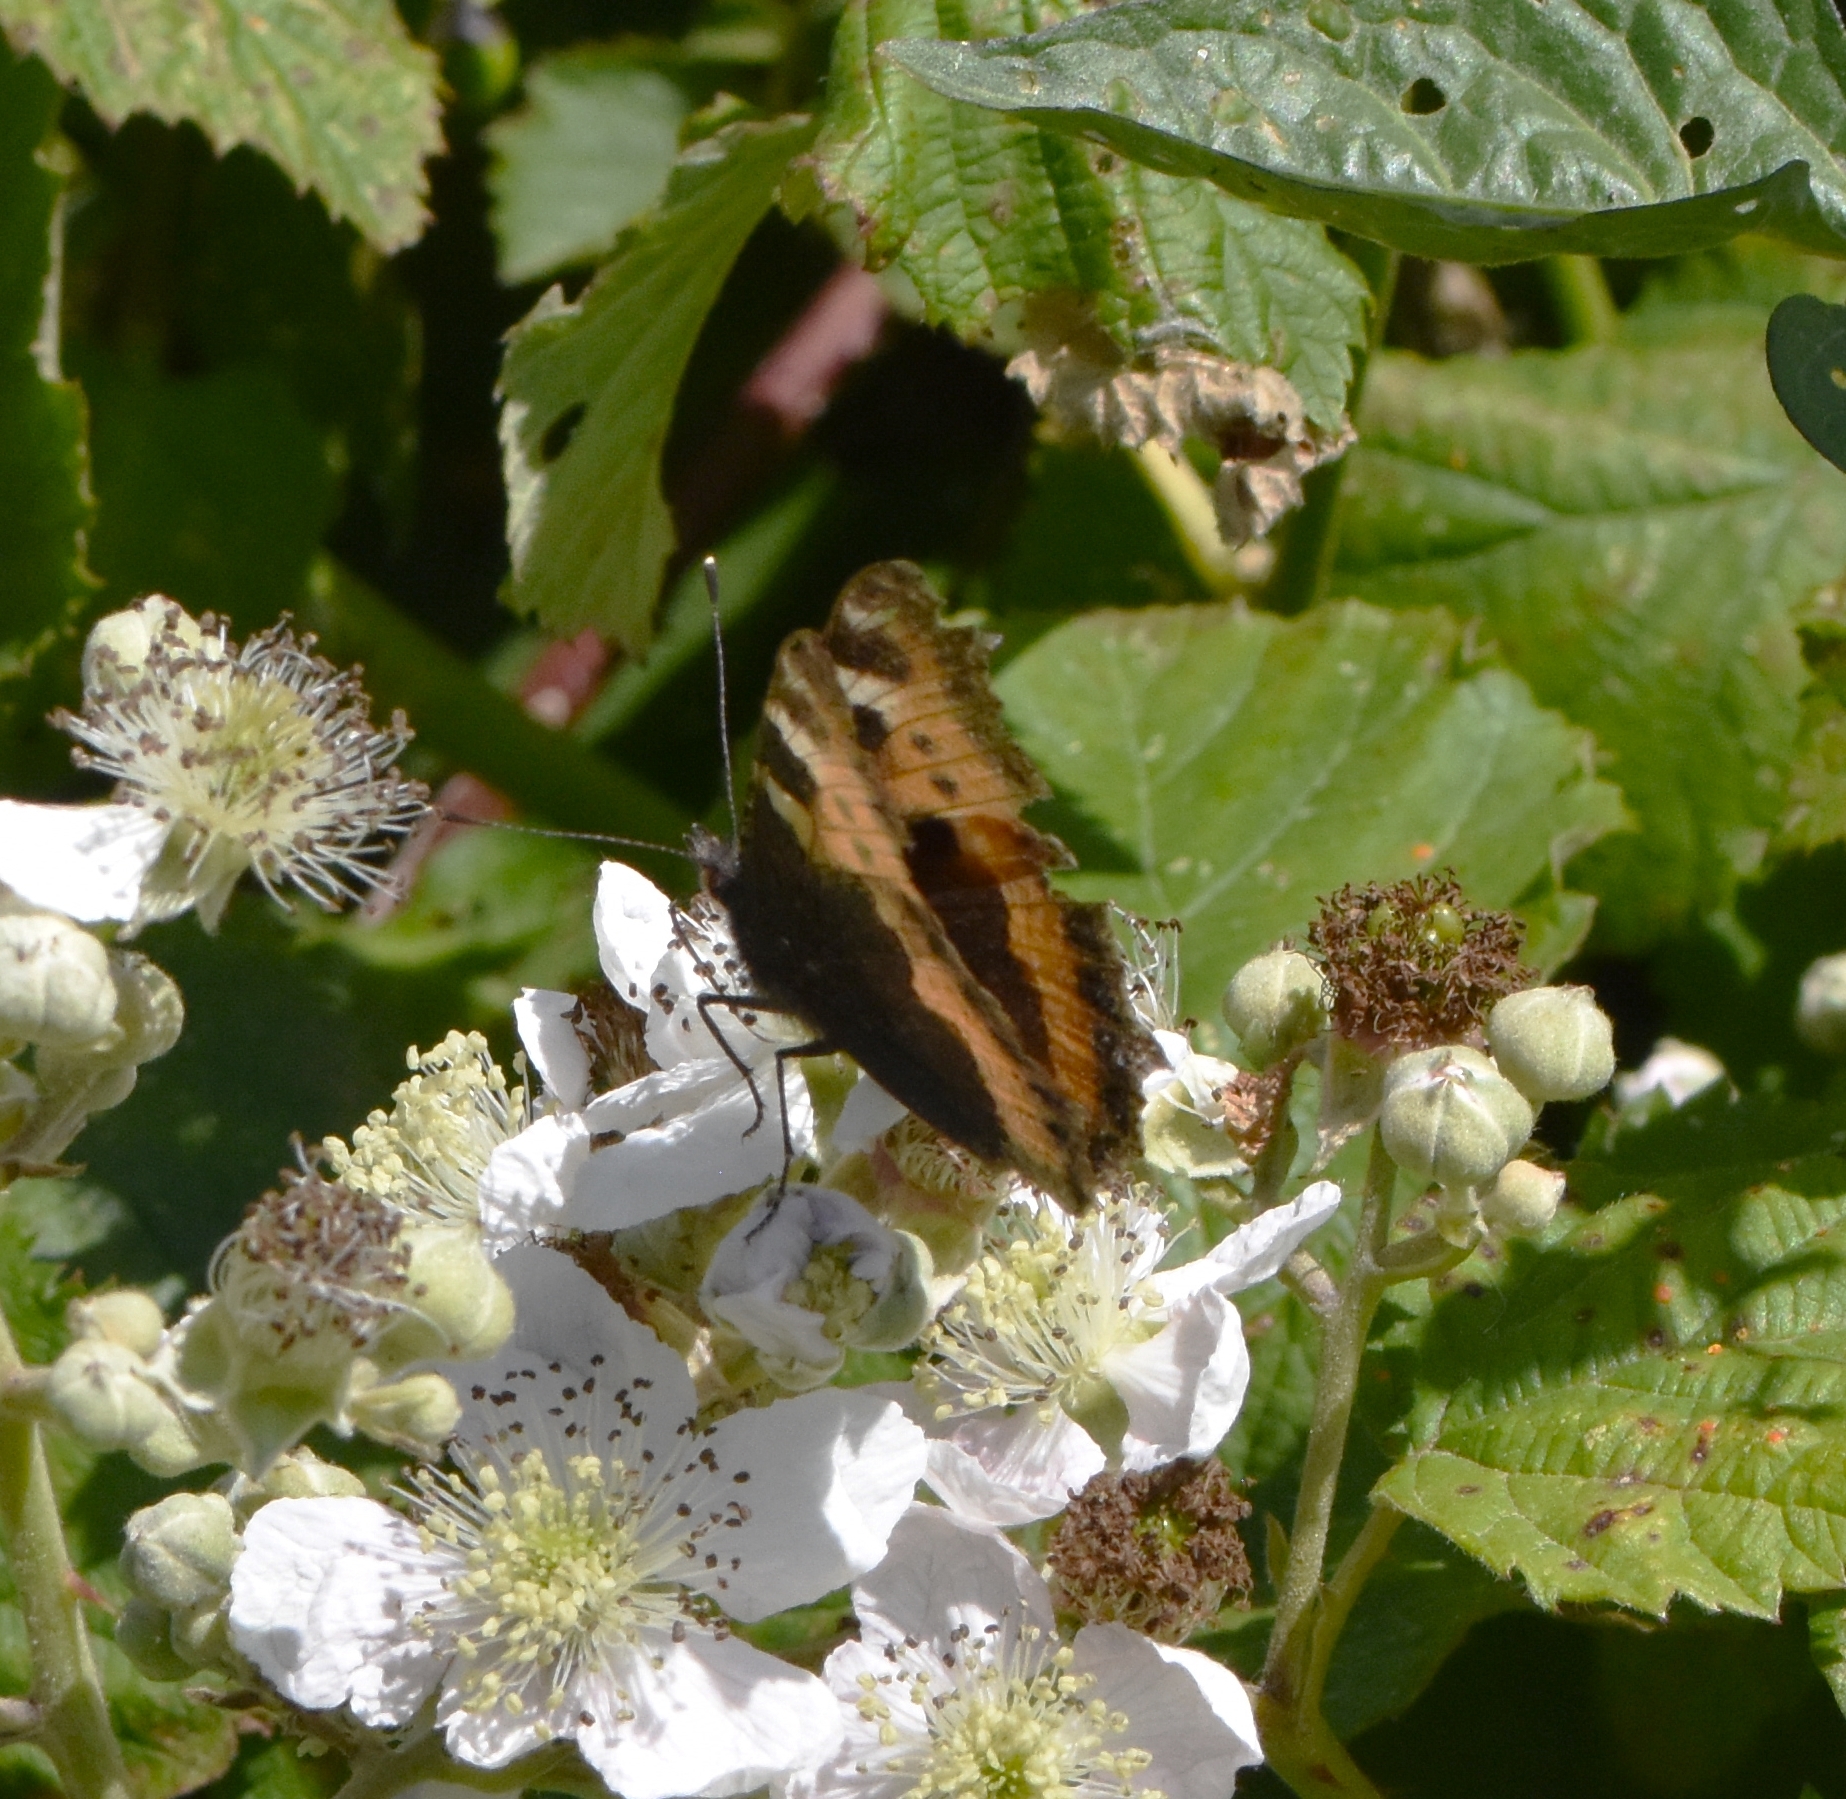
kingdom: Animalia
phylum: Arthropoda
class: Insecta
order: Lepidoptera
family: Nymphalidae
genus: Aglais
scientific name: Aglais urticae
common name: Small tortoiseshell
